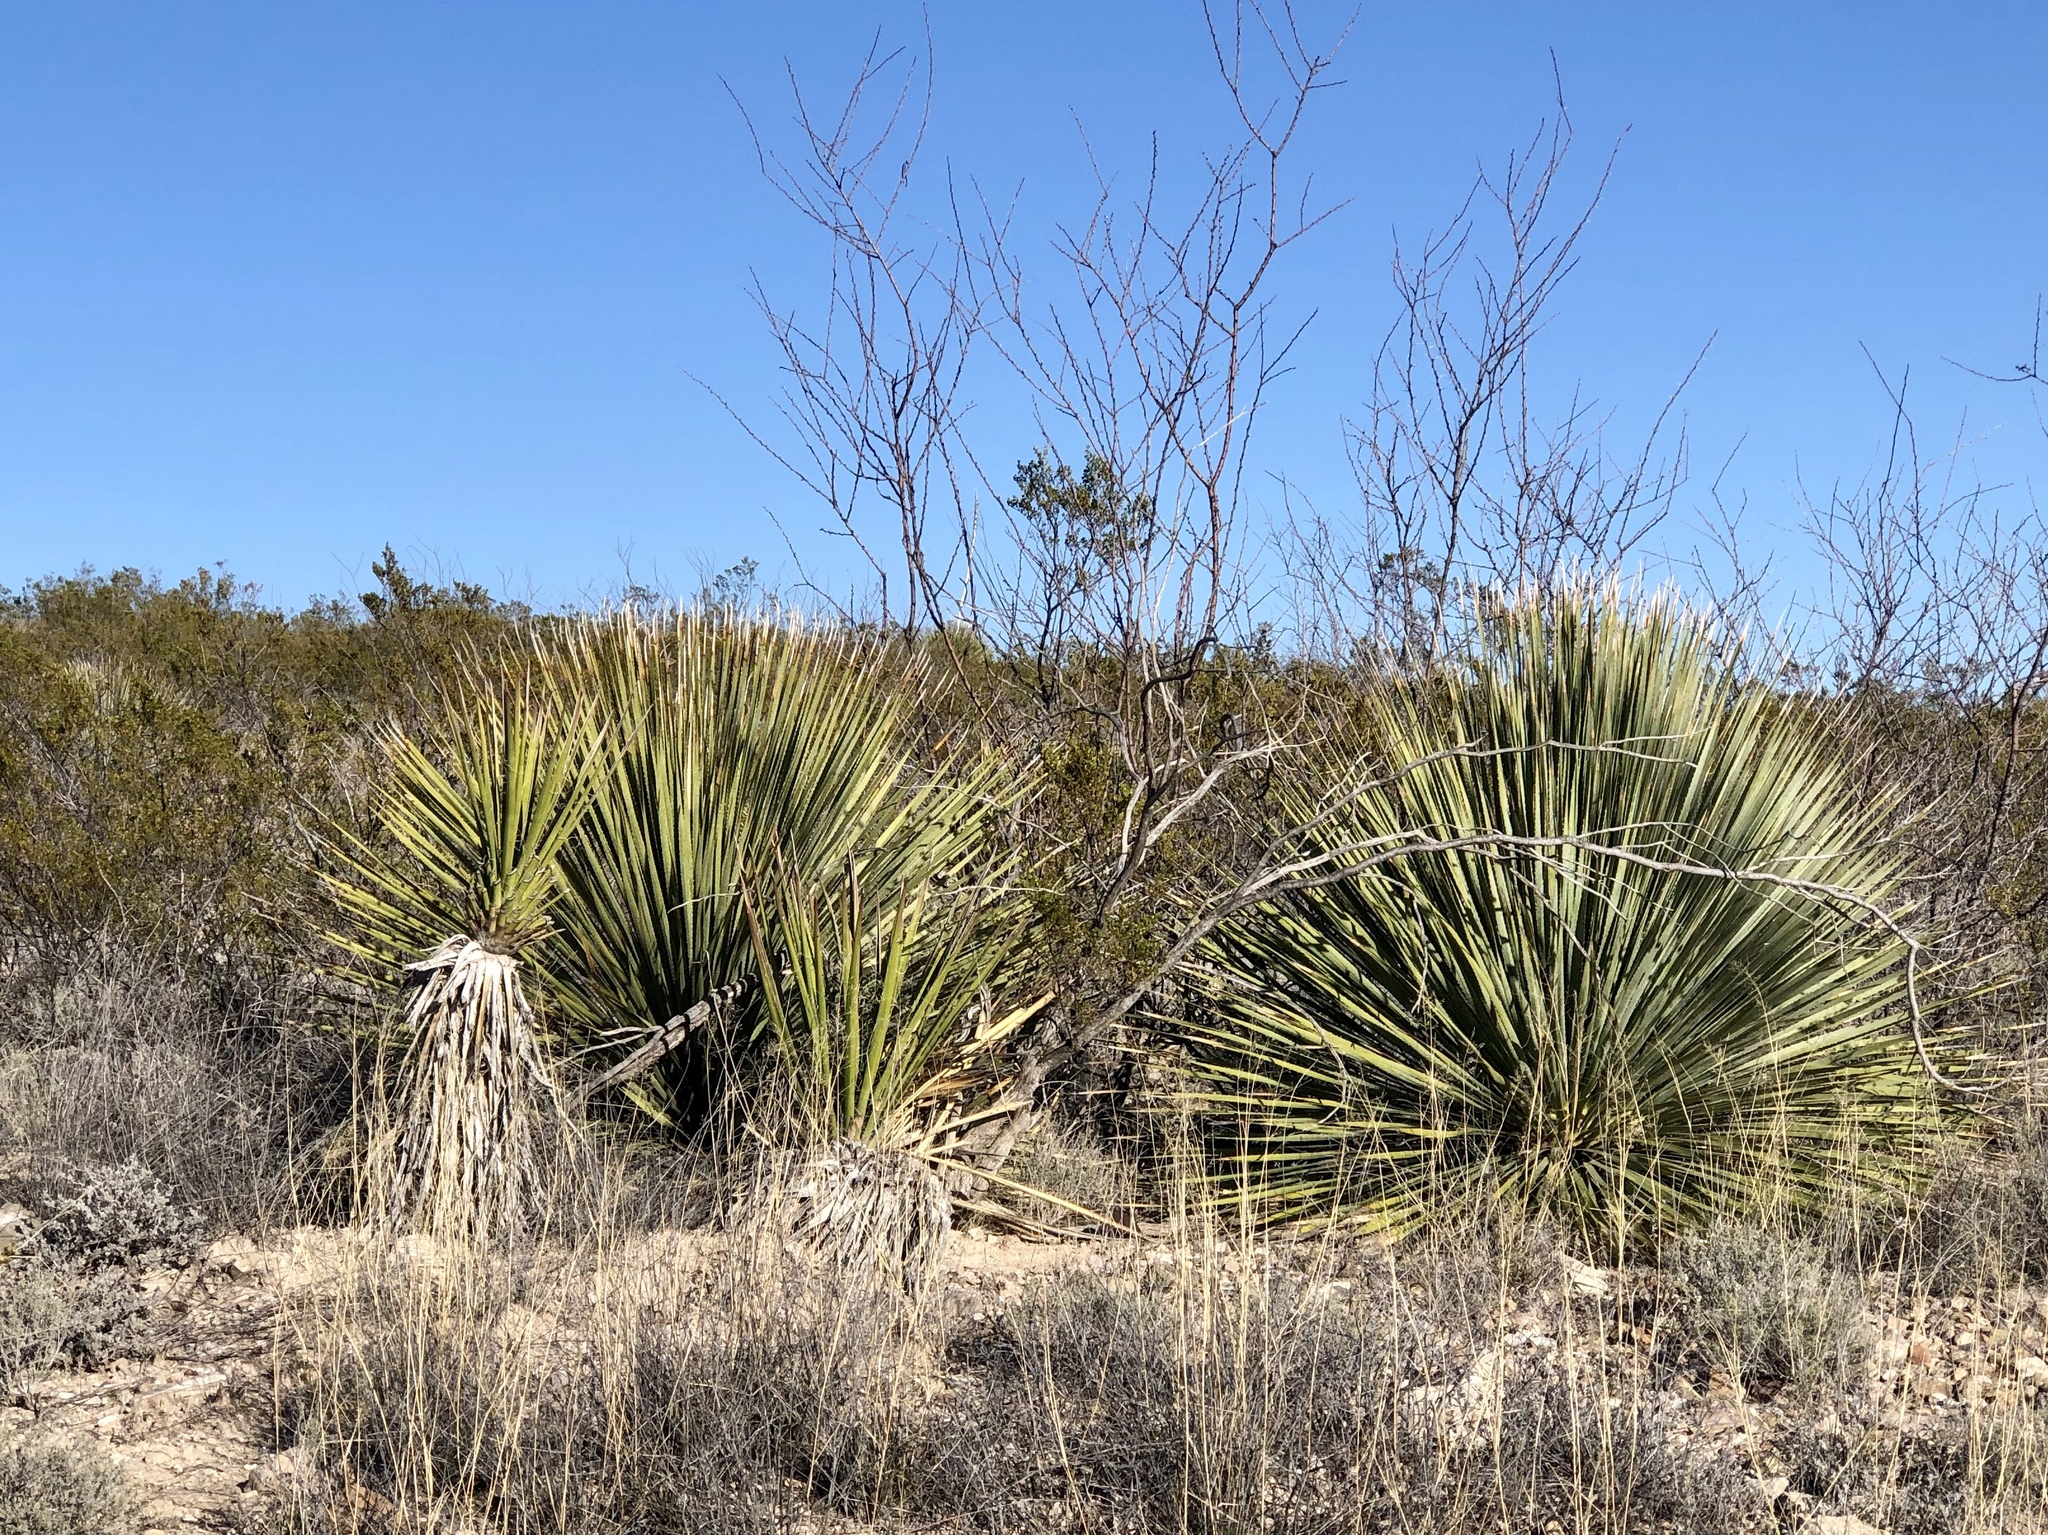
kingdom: Plantae
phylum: Tracheophyta
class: Liliopsida
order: Asparagales
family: Asparagaceae
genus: Dasylirion
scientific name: Dasylirion wheeleri
